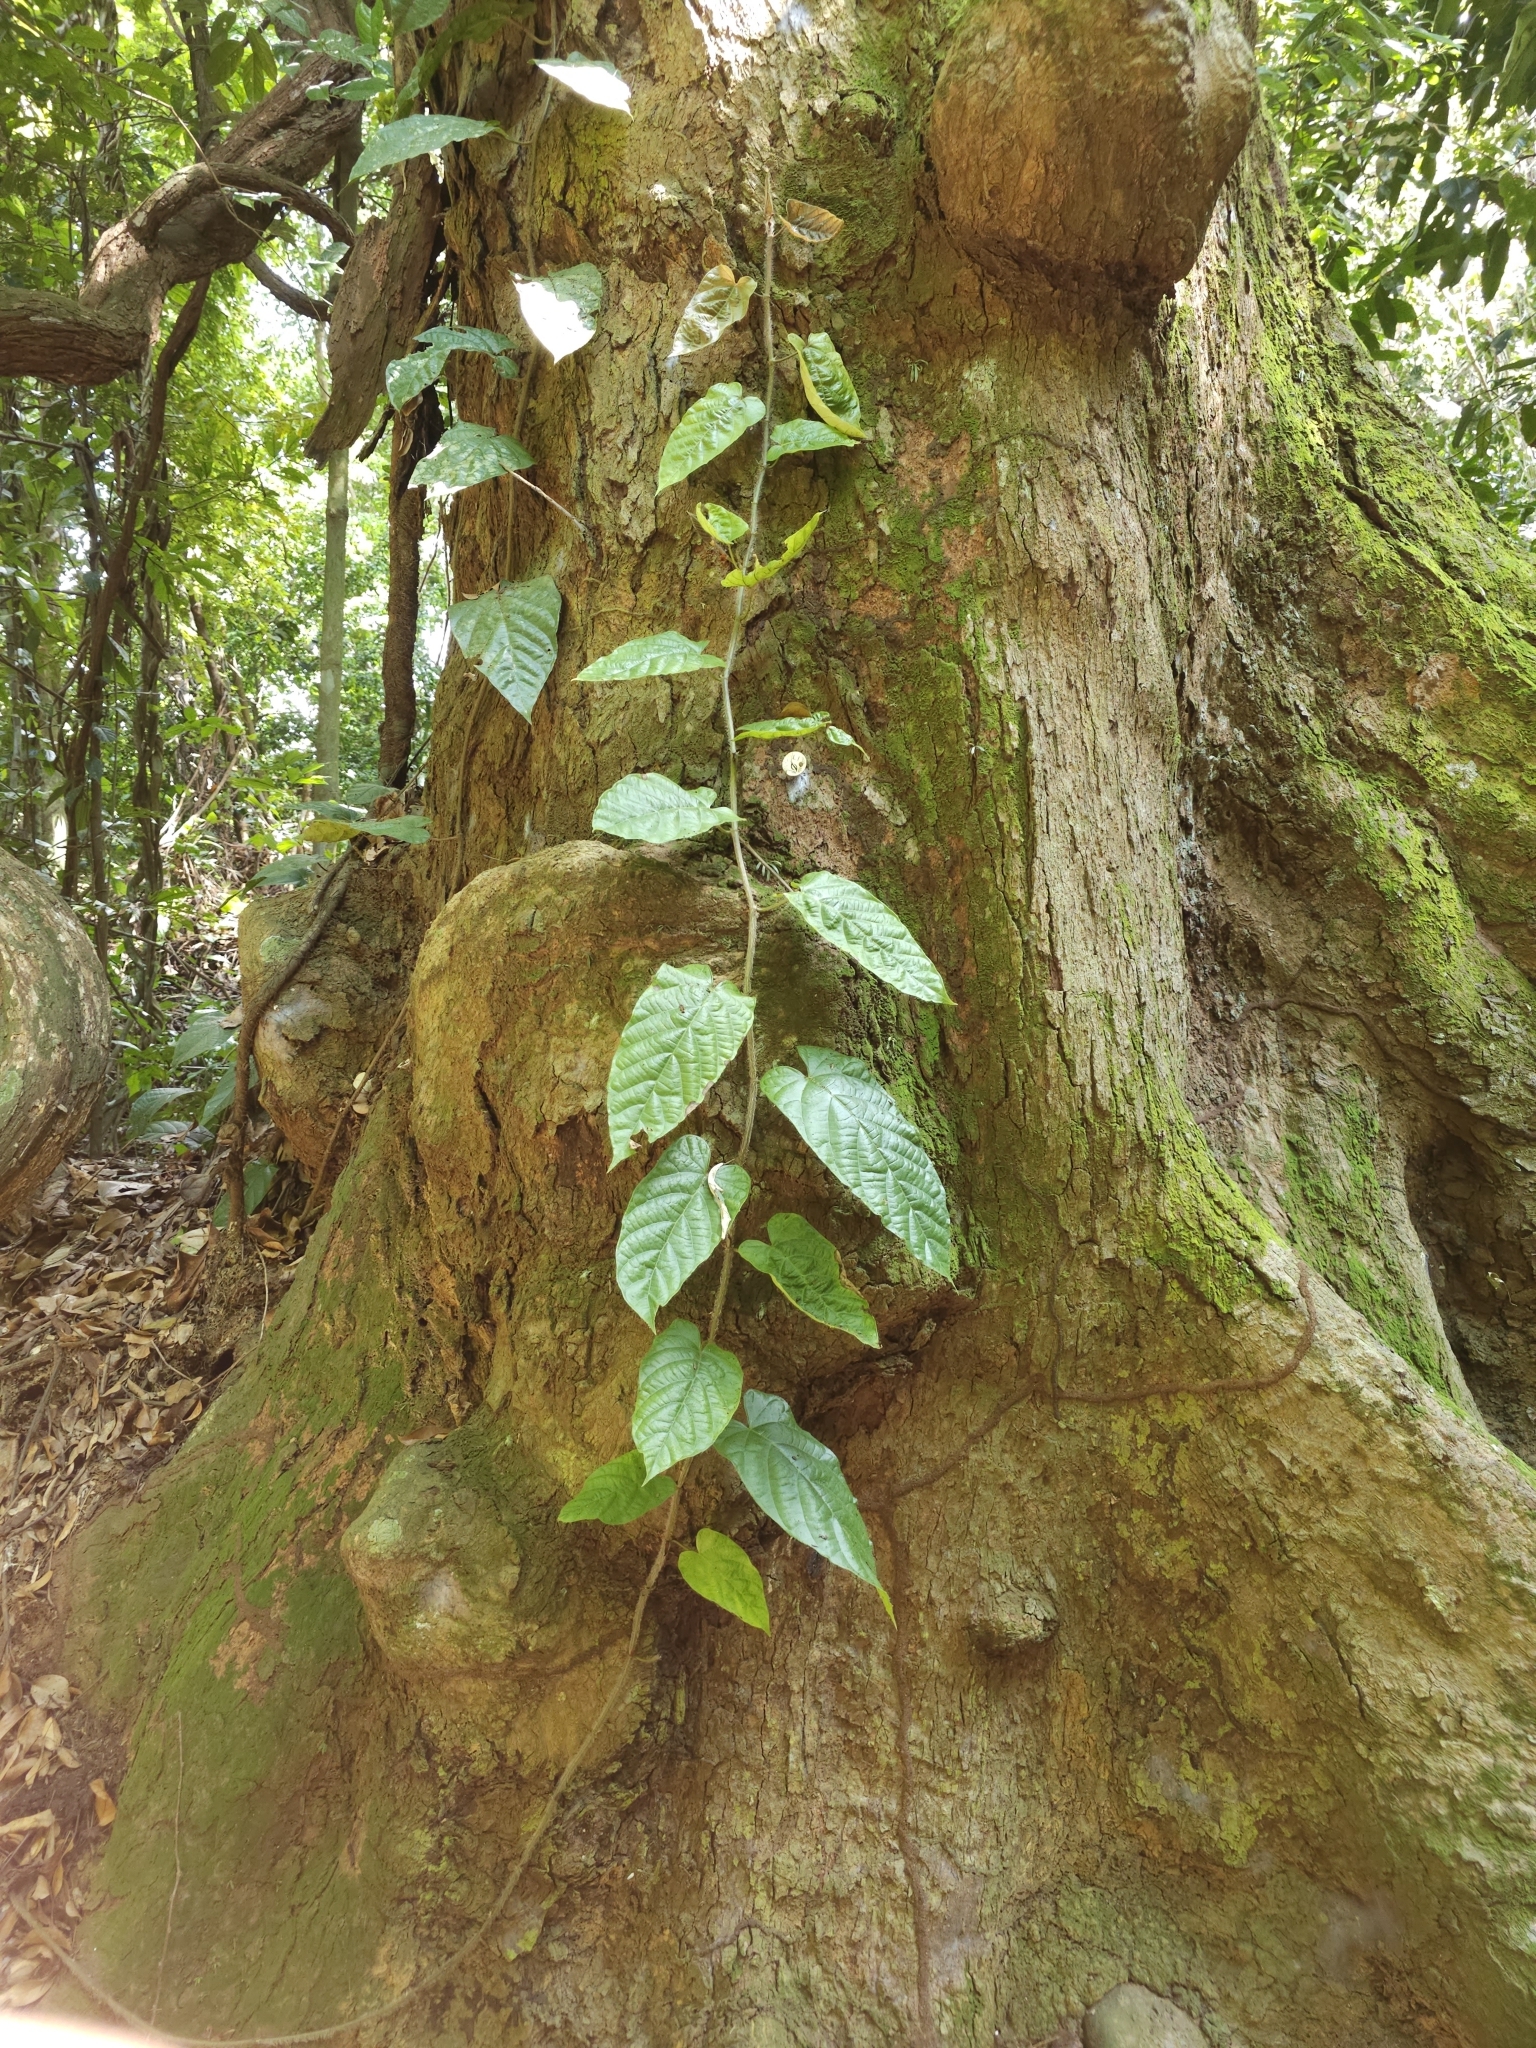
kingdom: Plantae
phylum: Tracheophyta
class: Magnoliopsida
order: Rosales
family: Moraceae
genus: Ficus
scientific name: Ficus sagittata
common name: Trailing fig
